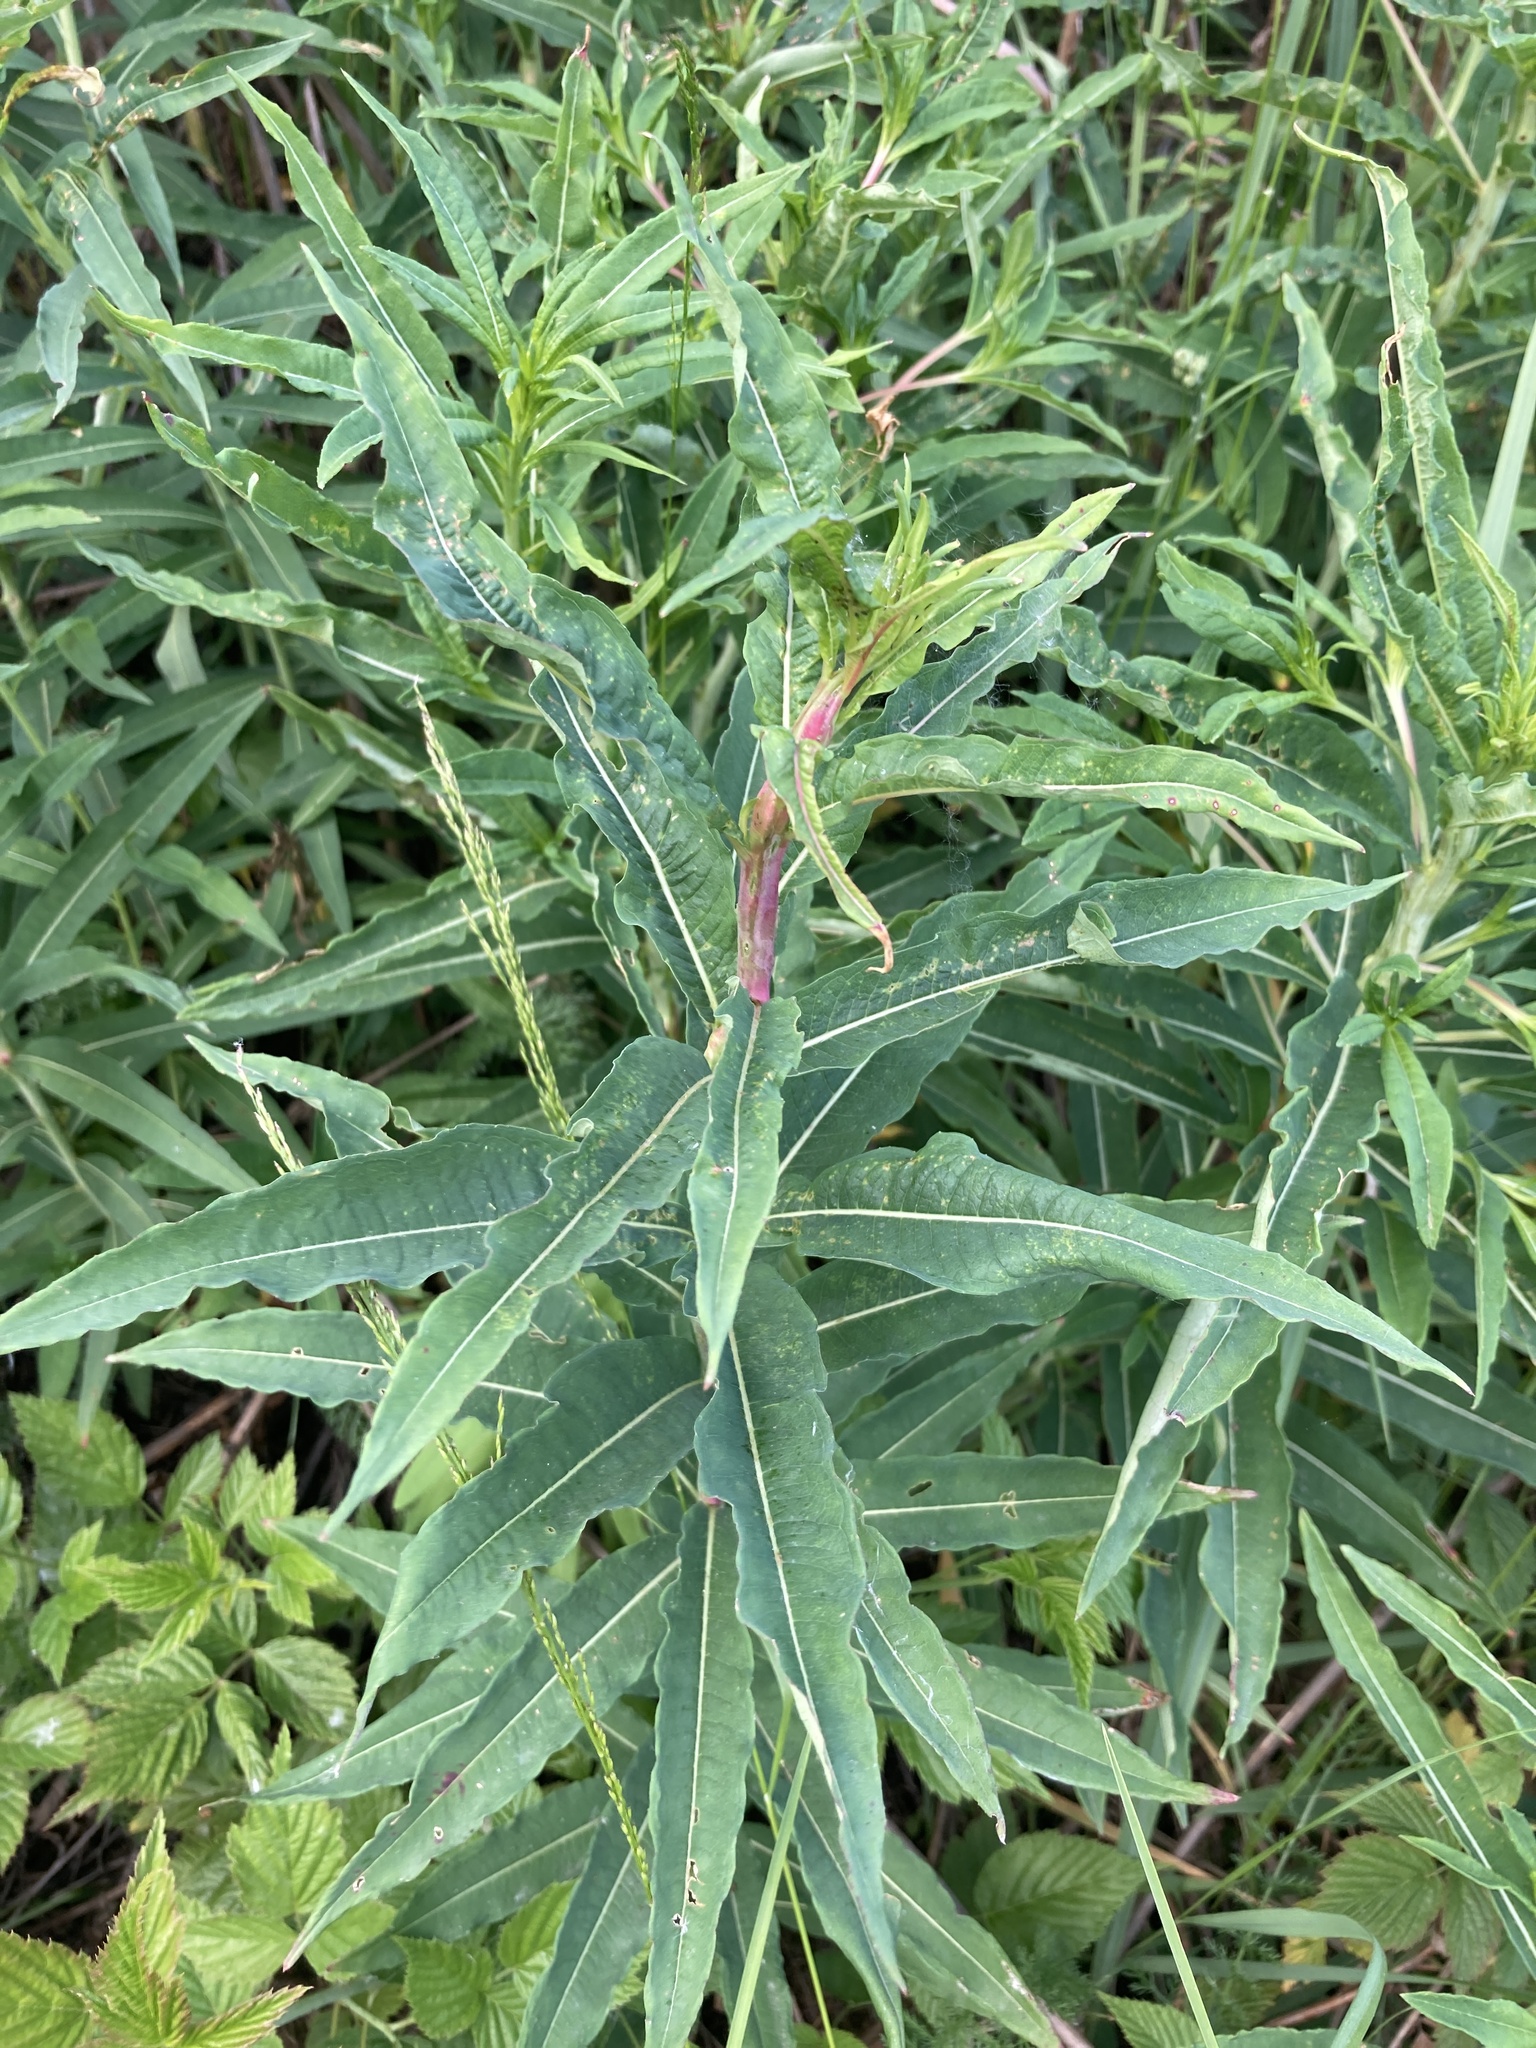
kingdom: Plantae
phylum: Tracheophyta
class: Magnoliopsida
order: Myrtales
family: Onagraceae
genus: Chamaenerion
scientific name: Chamaenerion angustifolium
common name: Fireweed
